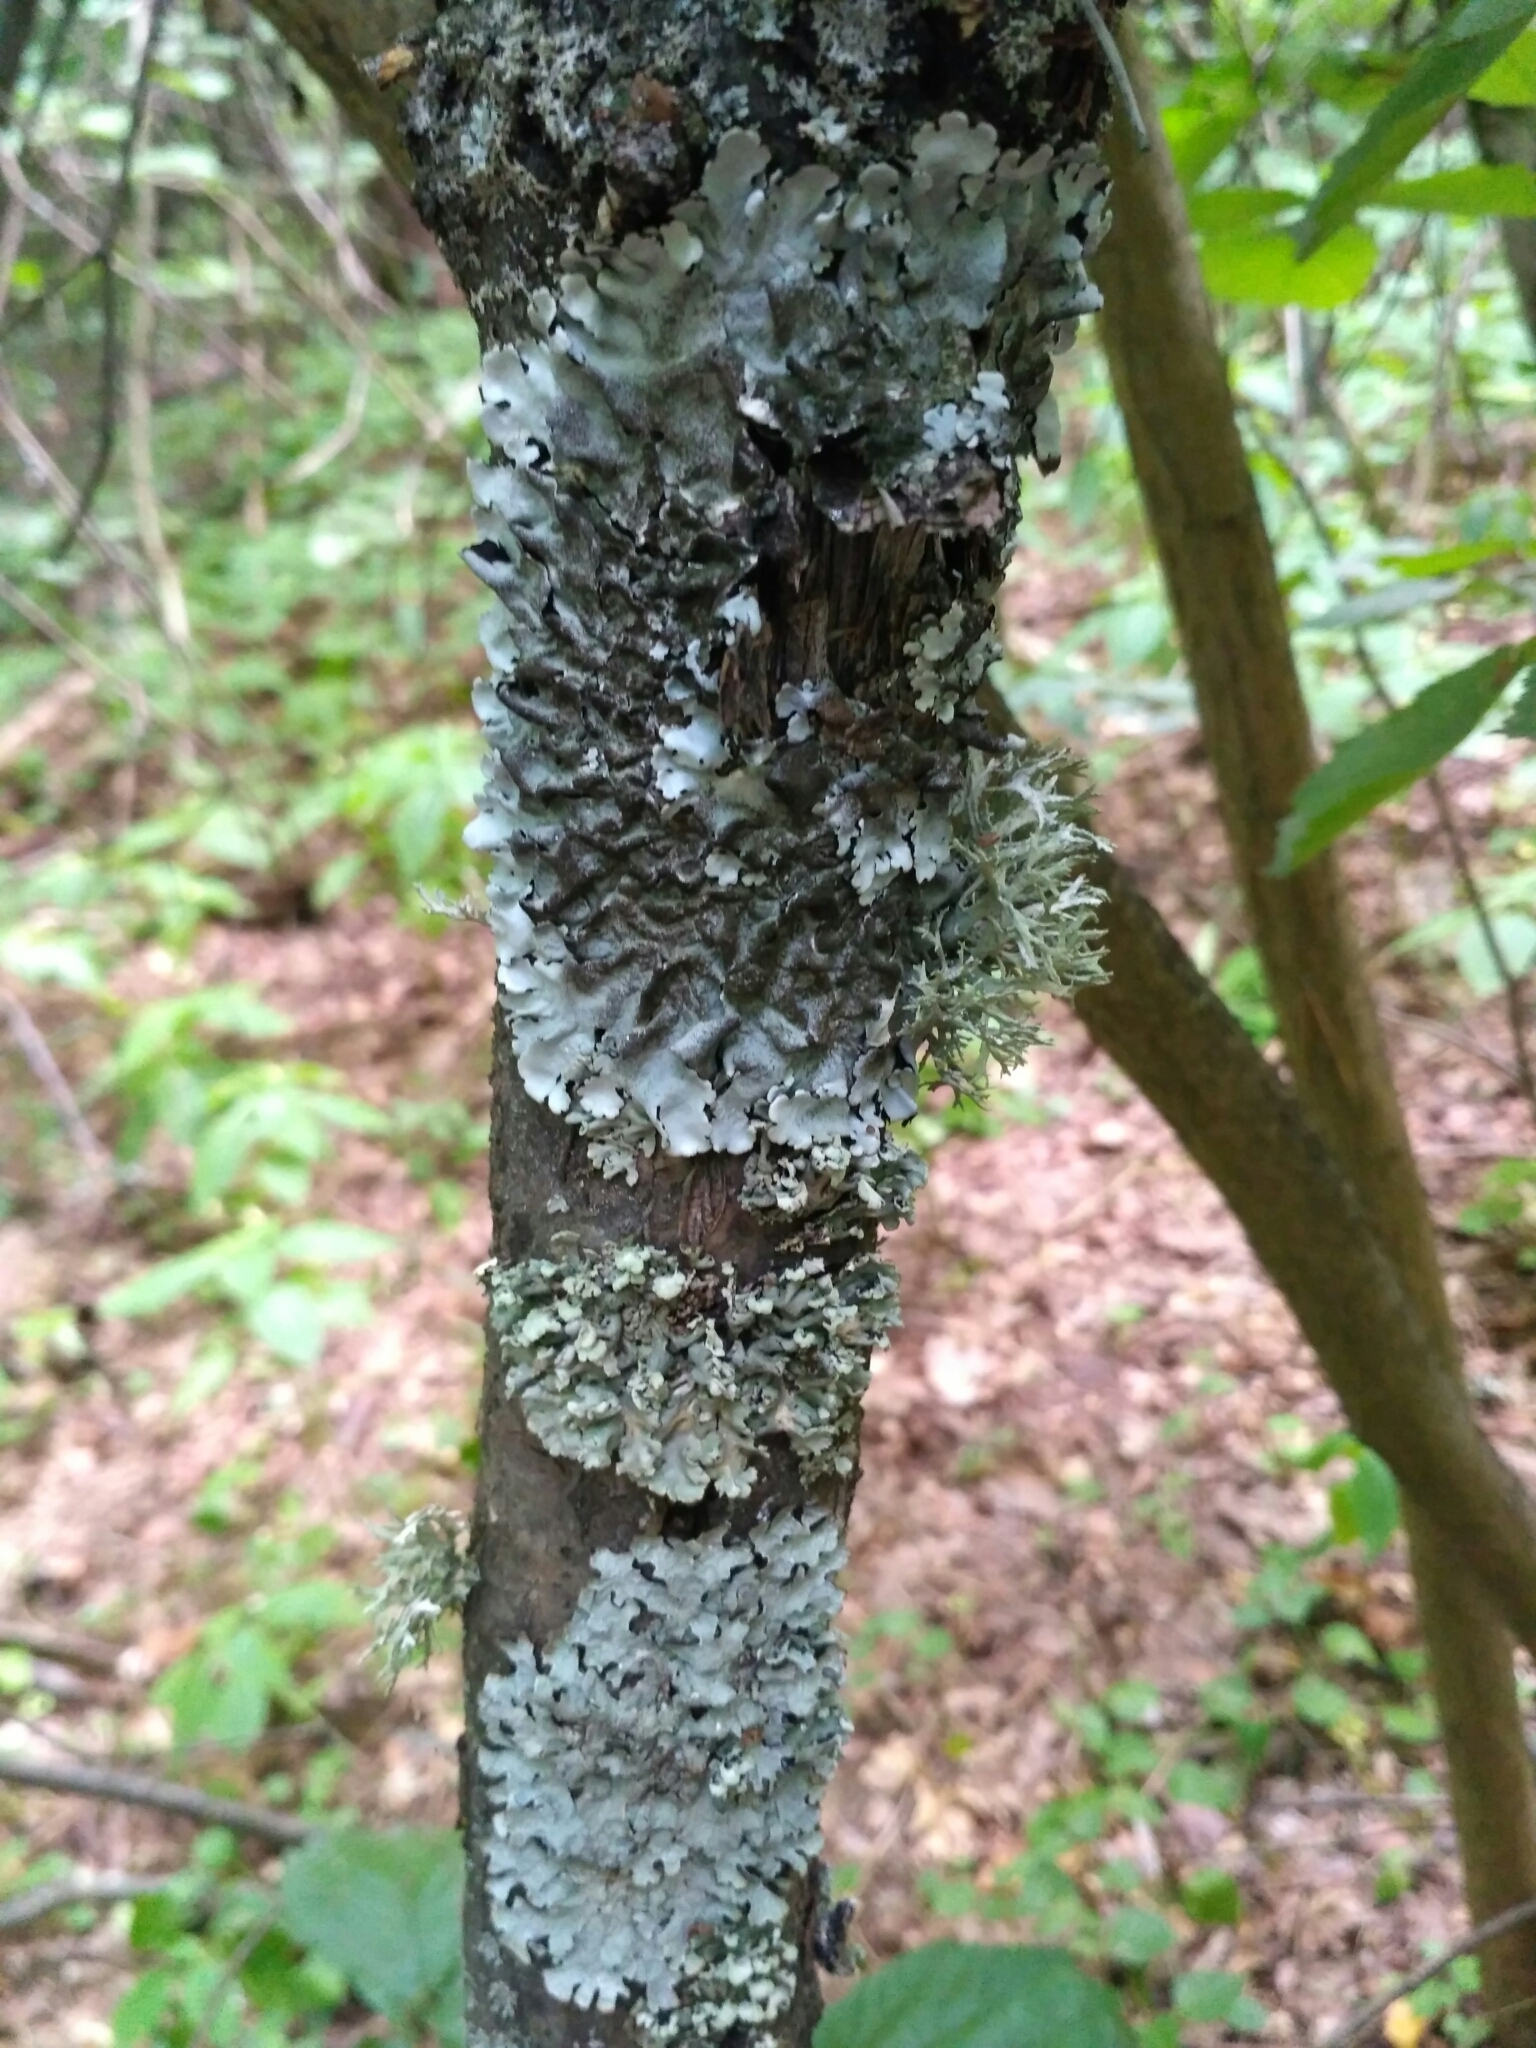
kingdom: Fungi
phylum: Ascomycota
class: Lecanoromycetes
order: Lecanorales
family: Parmeliaceae
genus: Parmelina
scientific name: Parmelina tiliacea
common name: Linden shield lichen
